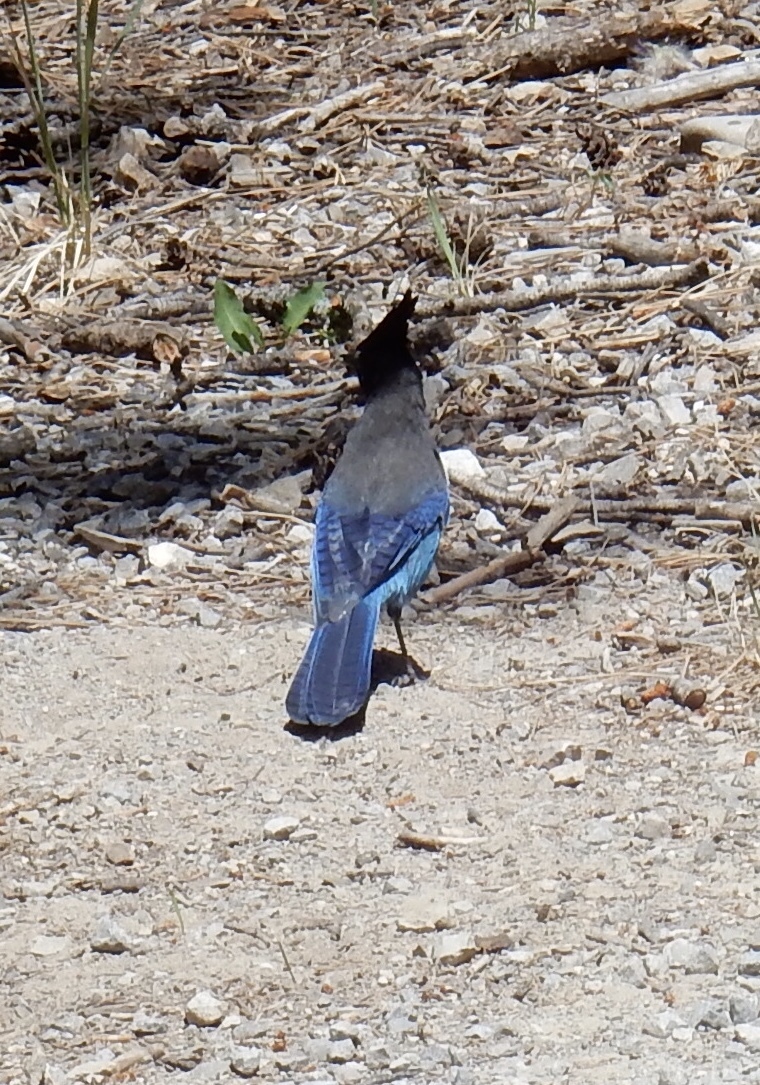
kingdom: Animalia
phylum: Chordata
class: Aves
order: Passeriformes
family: Corvidae
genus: Cyanocitta
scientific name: Cyanocitta stelleri
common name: Steller's jay
